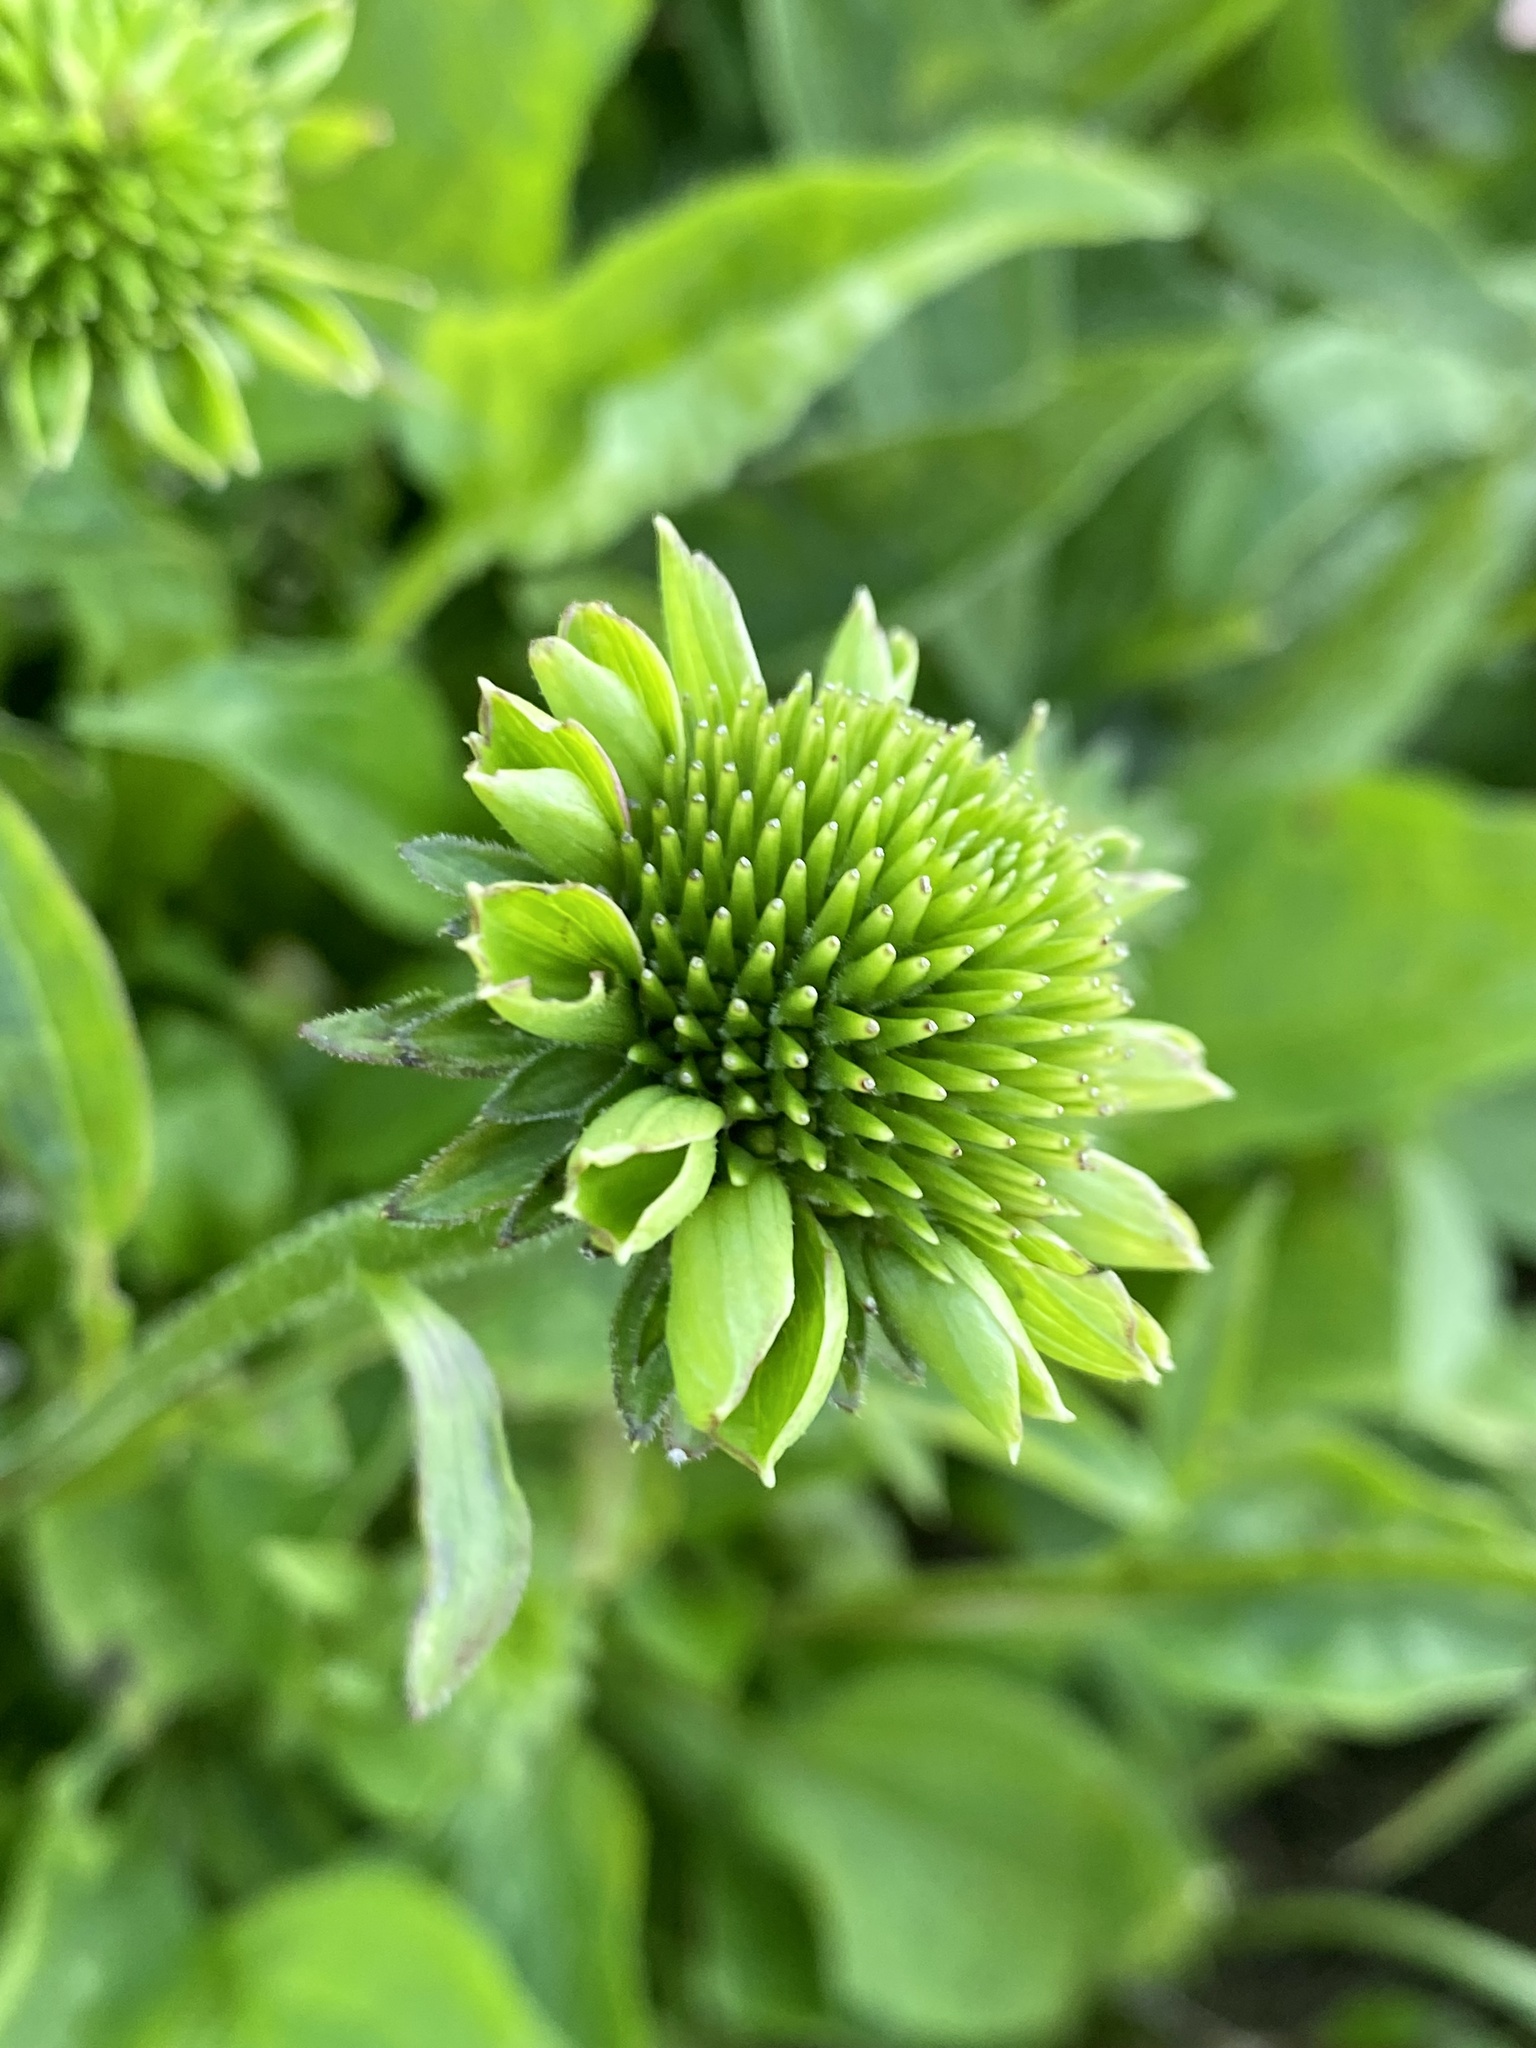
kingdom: Bacteria
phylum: Firmicutes
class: Bacilli
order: Acholeplasmatales
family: Acholeplasmataceae
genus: Phytoplasma
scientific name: Phytoplasma
